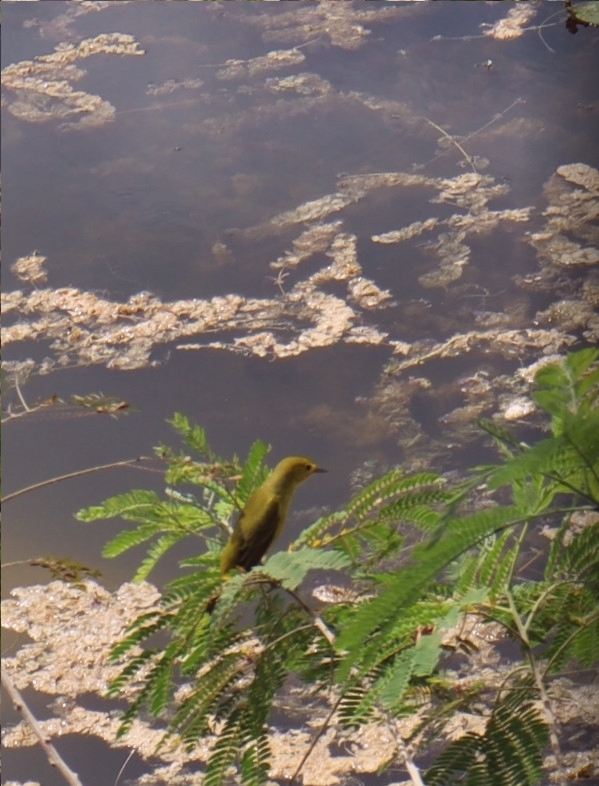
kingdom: Animalia
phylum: Chordata
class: Aves
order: Passeriformes
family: Parulidae
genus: Setophaga
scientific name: Setophaga petechia
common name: Yellow warbler
